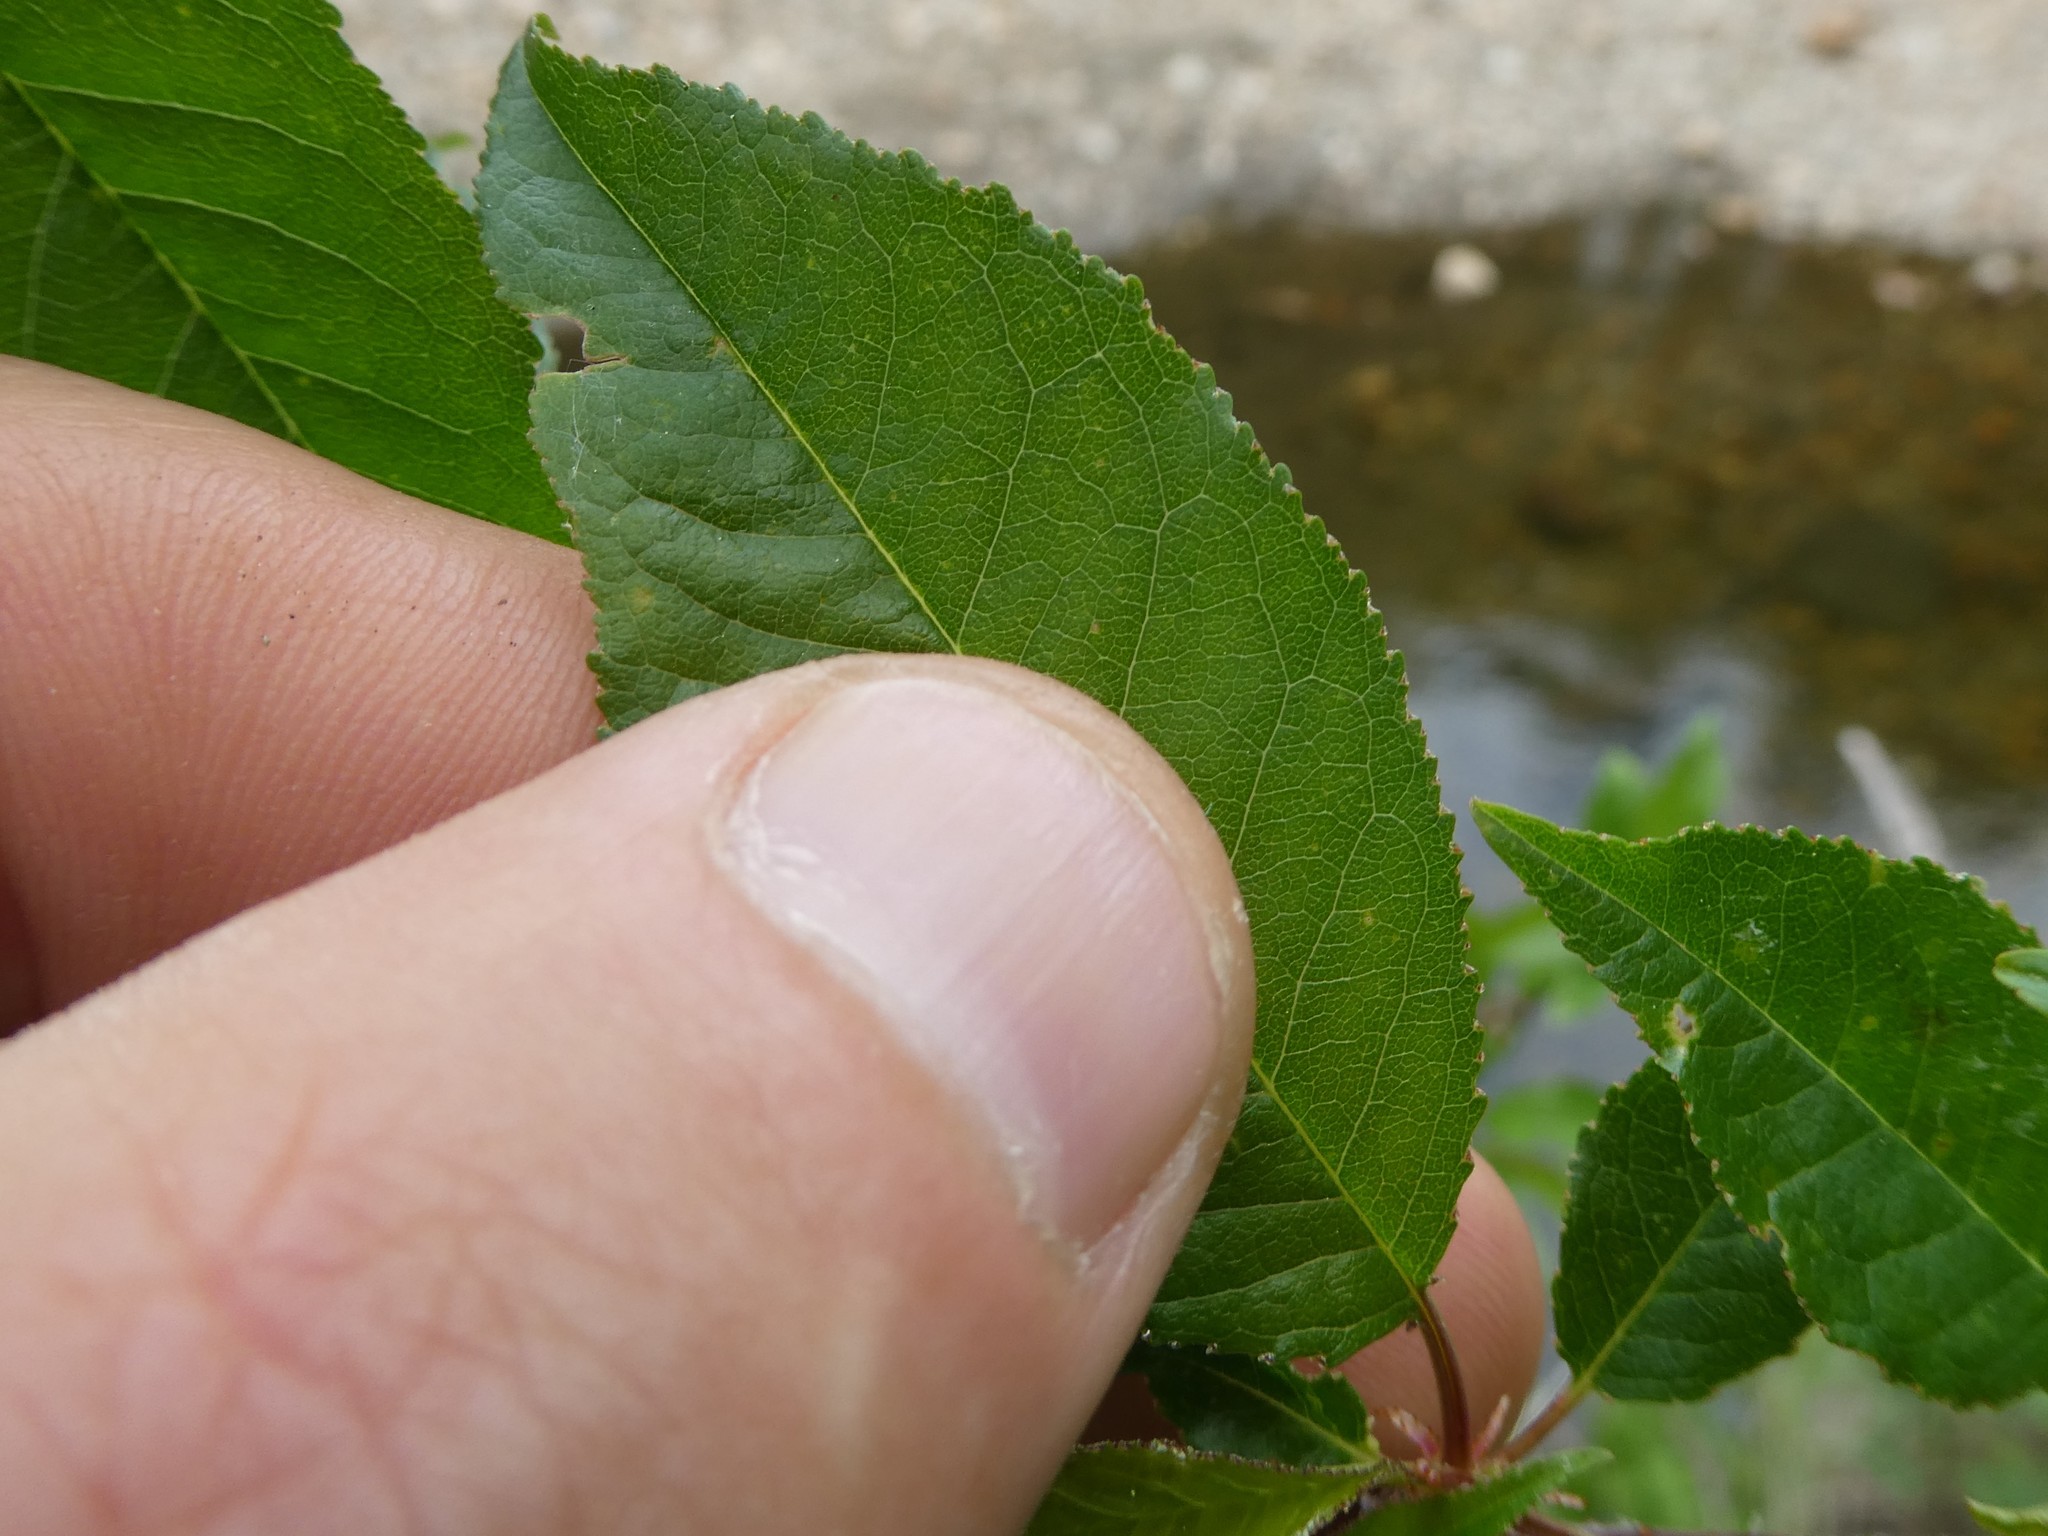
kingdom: Plantae
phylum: Tracheophyta
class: Magnoliopsida
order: Rosales
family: Rosaceae
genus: Prunus
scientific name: Prunus pensylvanica
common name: Pin cherry
